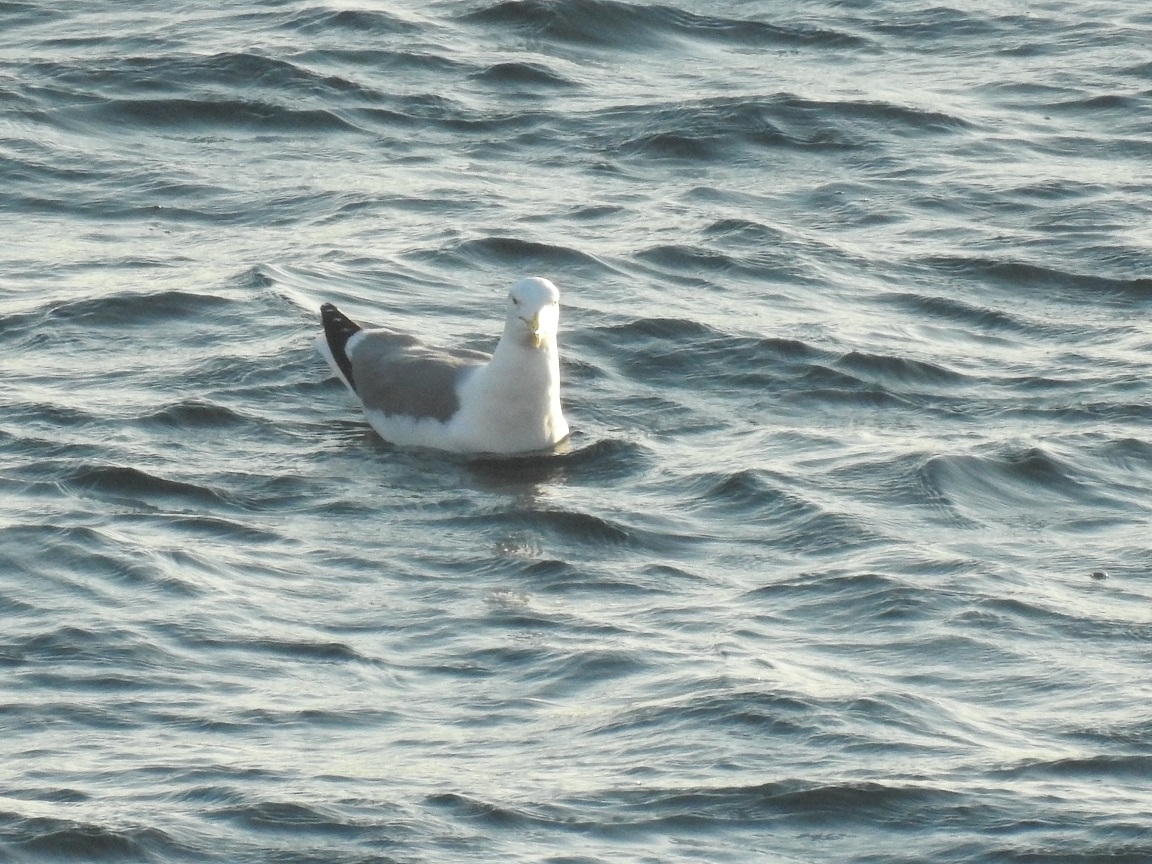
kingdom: Animalia
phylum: Chordata
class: Aves
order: Charadriiformes
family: Laridae
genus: Larus
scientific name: Larus michahellis
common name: Yellow-legged gull
